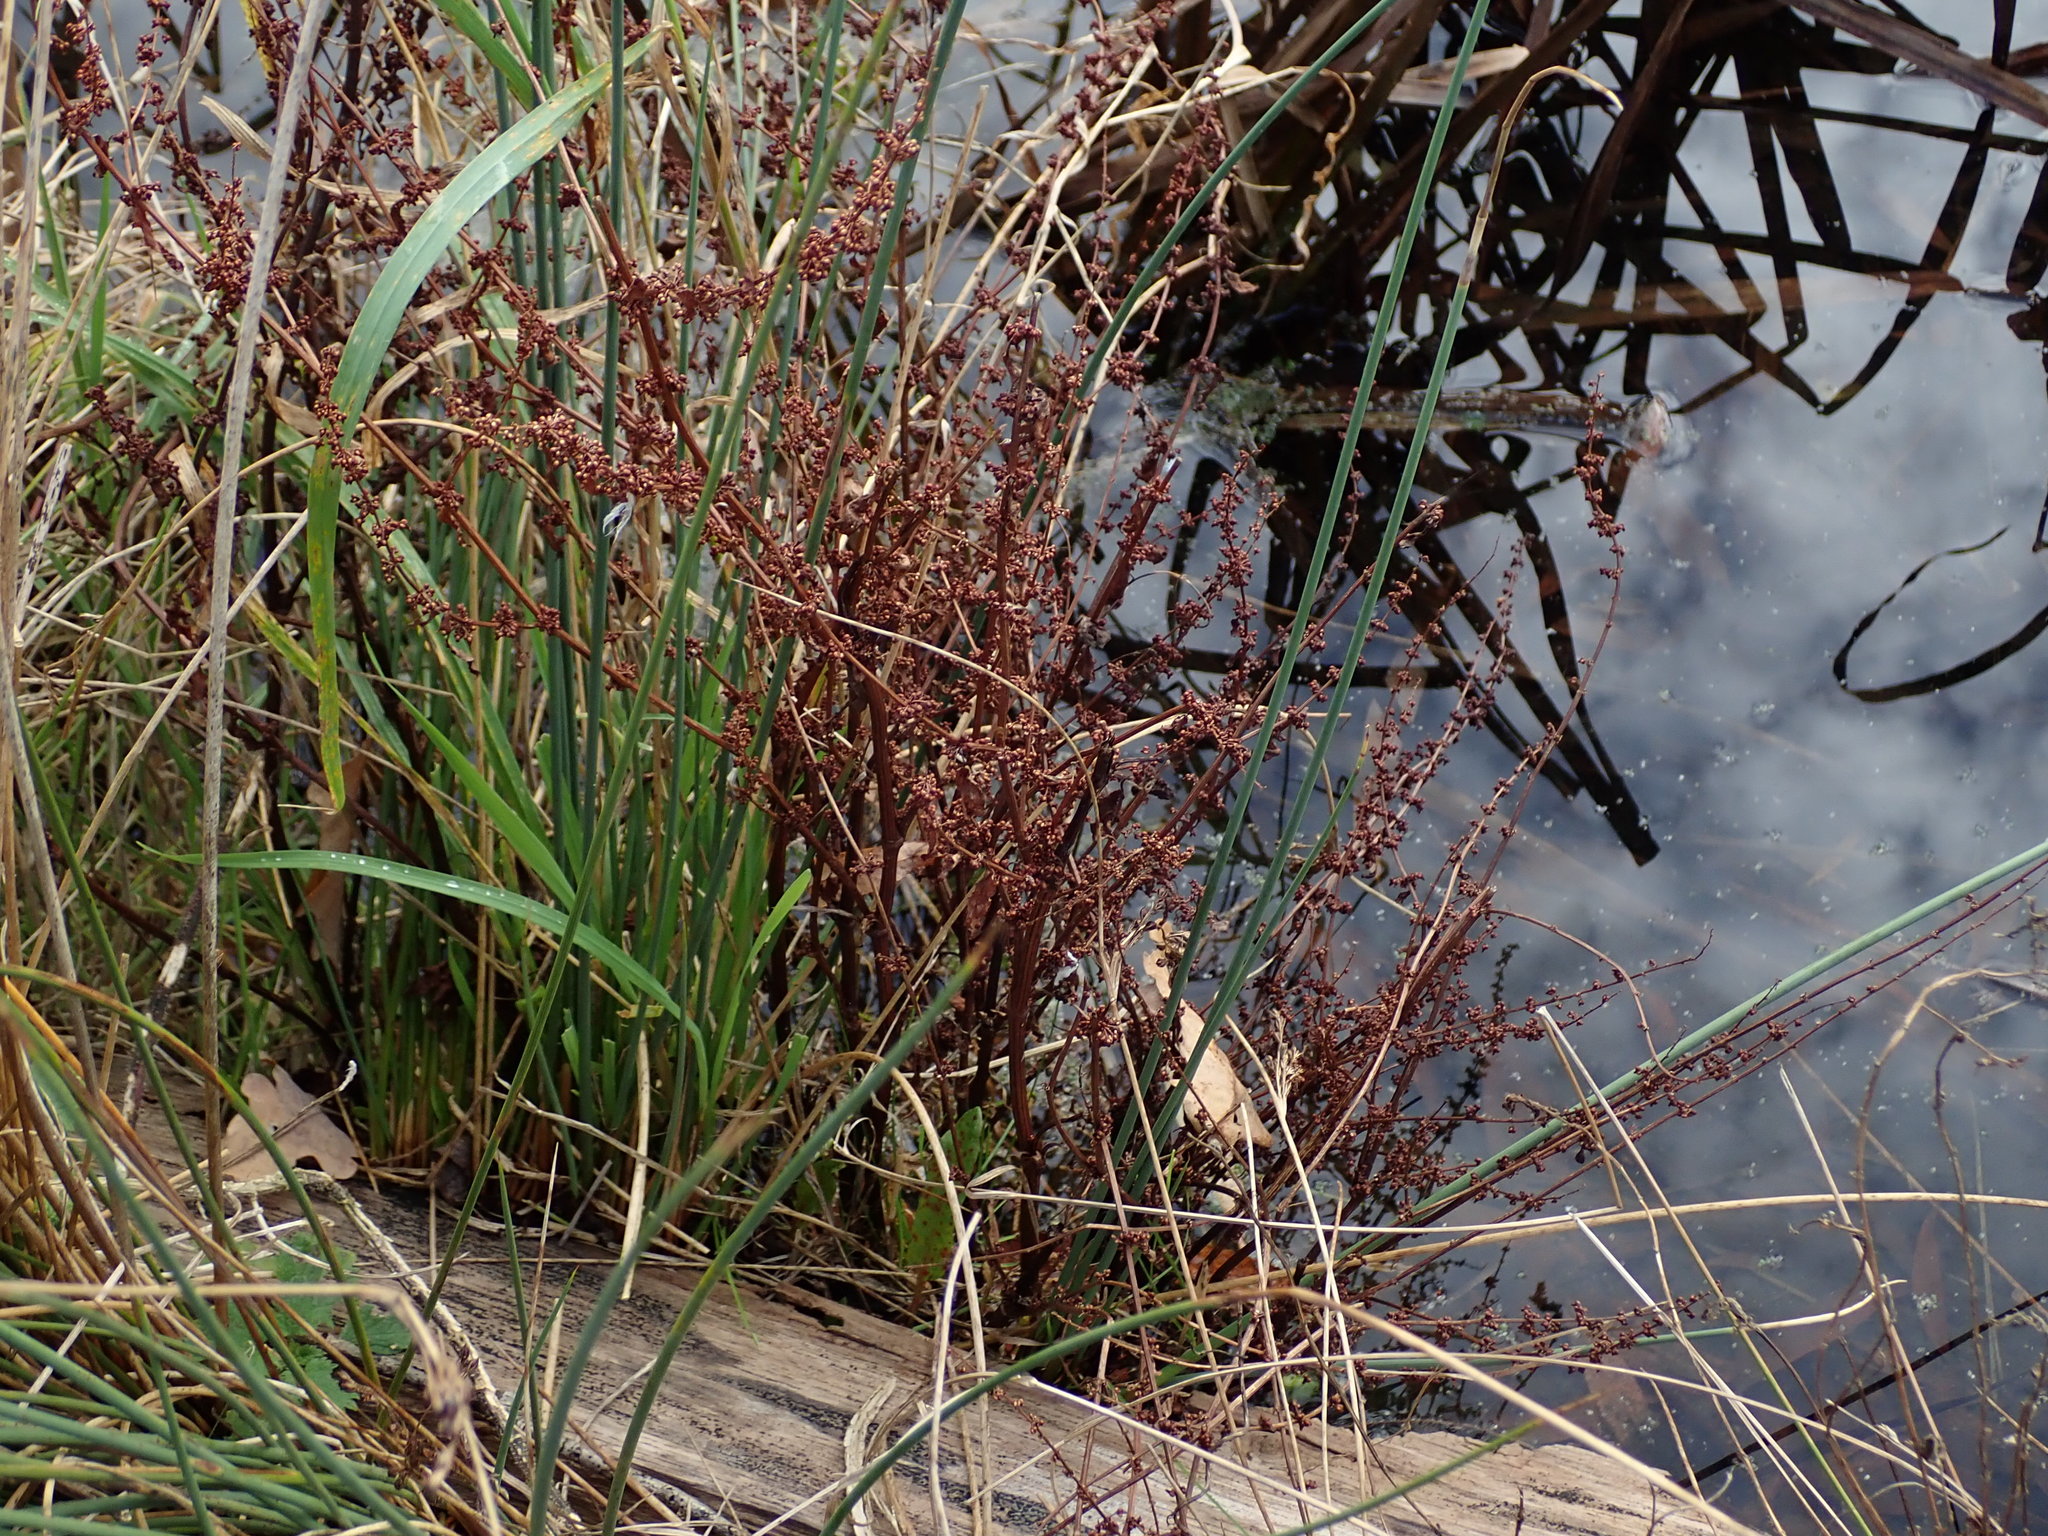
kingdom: Plantae
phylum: Tracheophyta
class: Magnoliopsida
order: Caryophyllales
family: Polygonaceae
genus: Rumex
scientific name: Rumex conglomeratus
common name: Clustered dock
